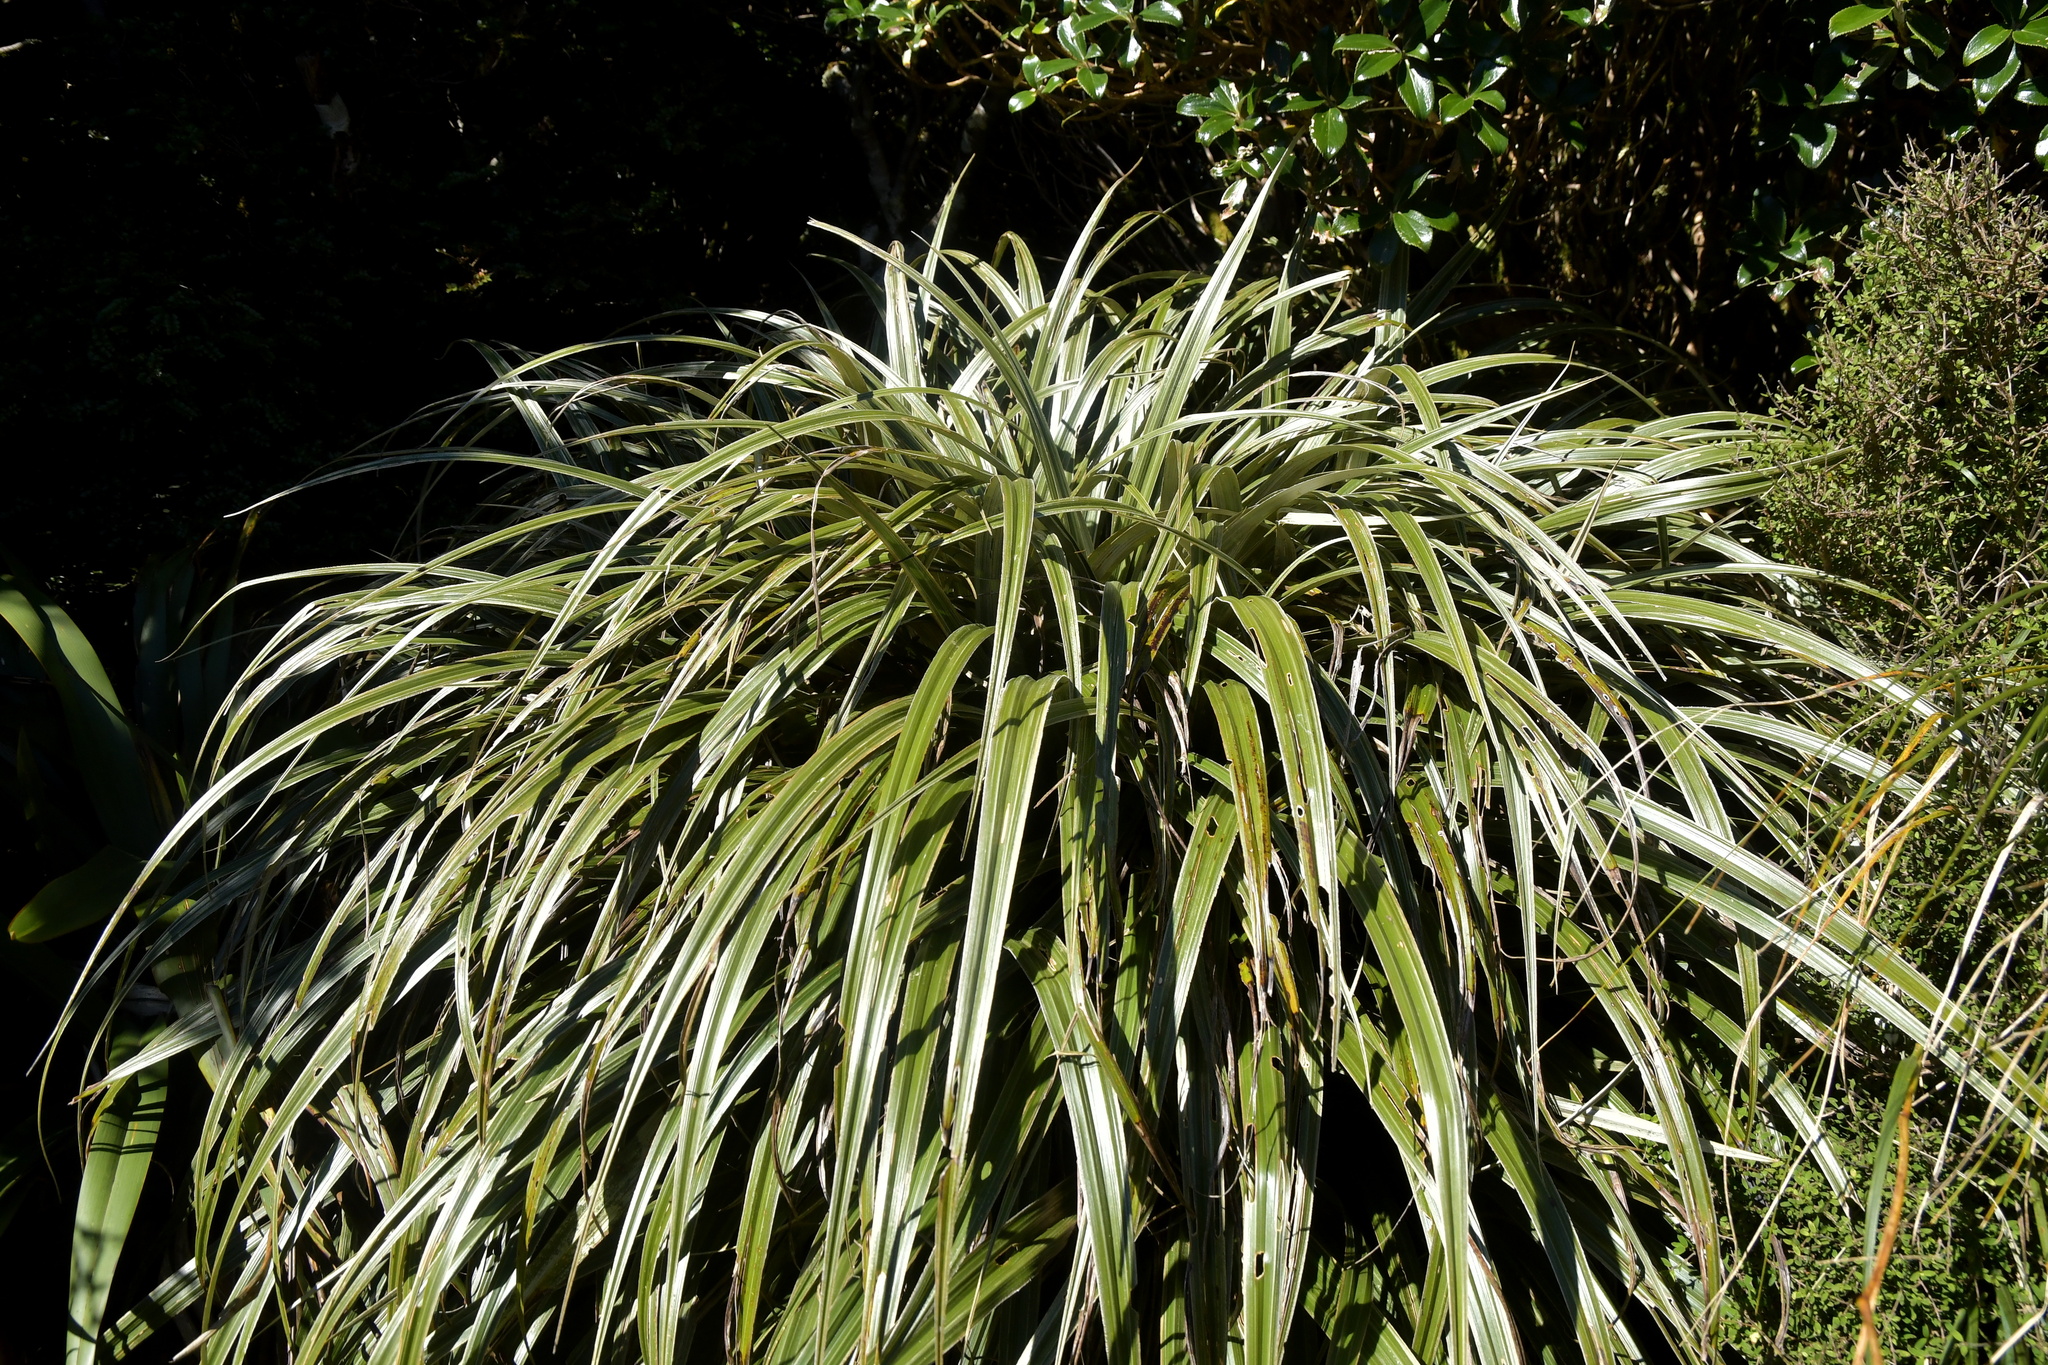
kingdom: Plantae
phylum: Tracheophyta
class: Liliopsida
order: Asparagales
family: Asteliaceae
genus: Astelia
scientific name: Astelia nervosa
